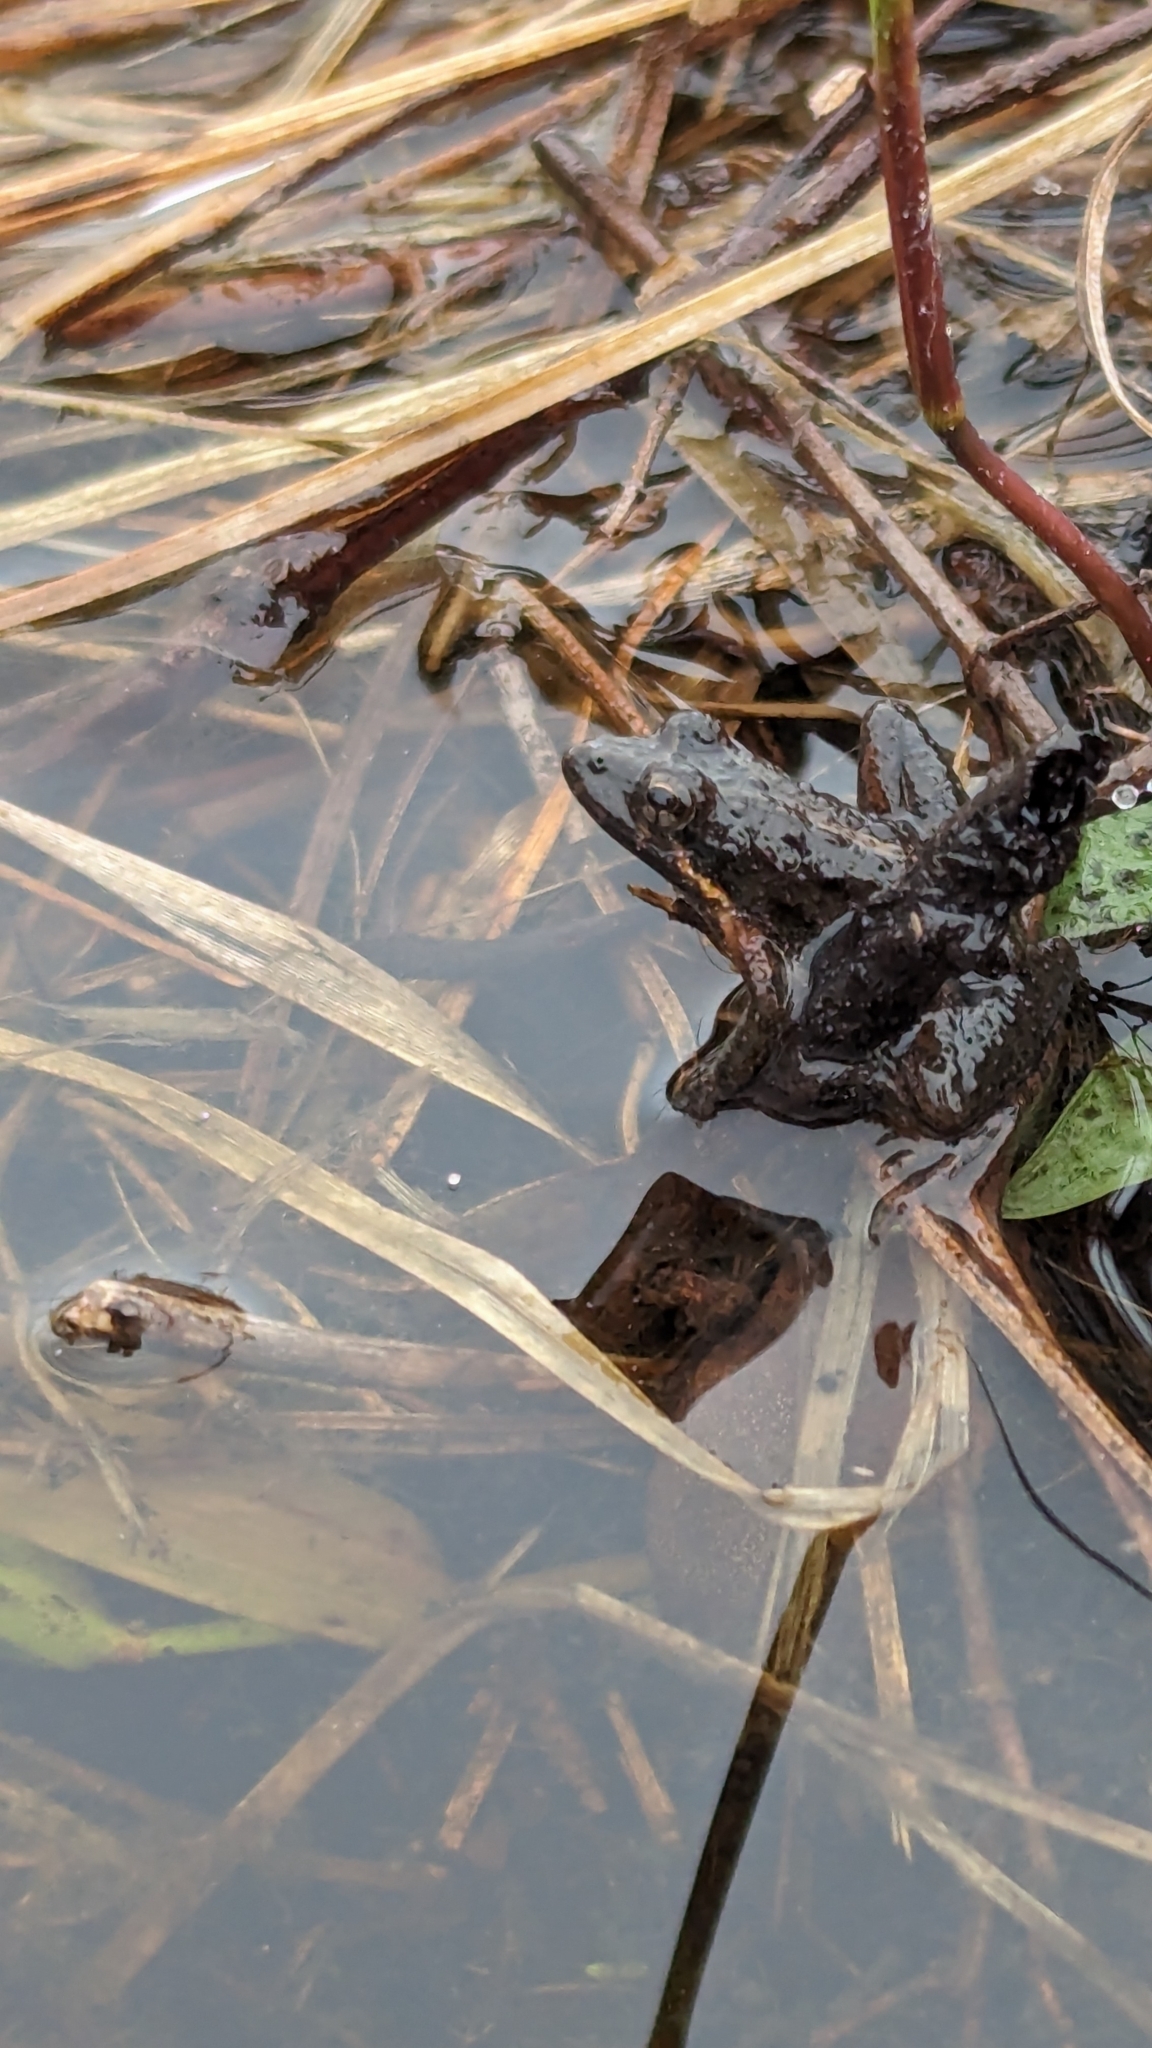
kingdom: Animalia
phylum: Chordata
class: Amphibia
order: Anura
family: Hylidae
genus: Acris
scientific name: Acris gryllus
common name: Southern cricket frog
